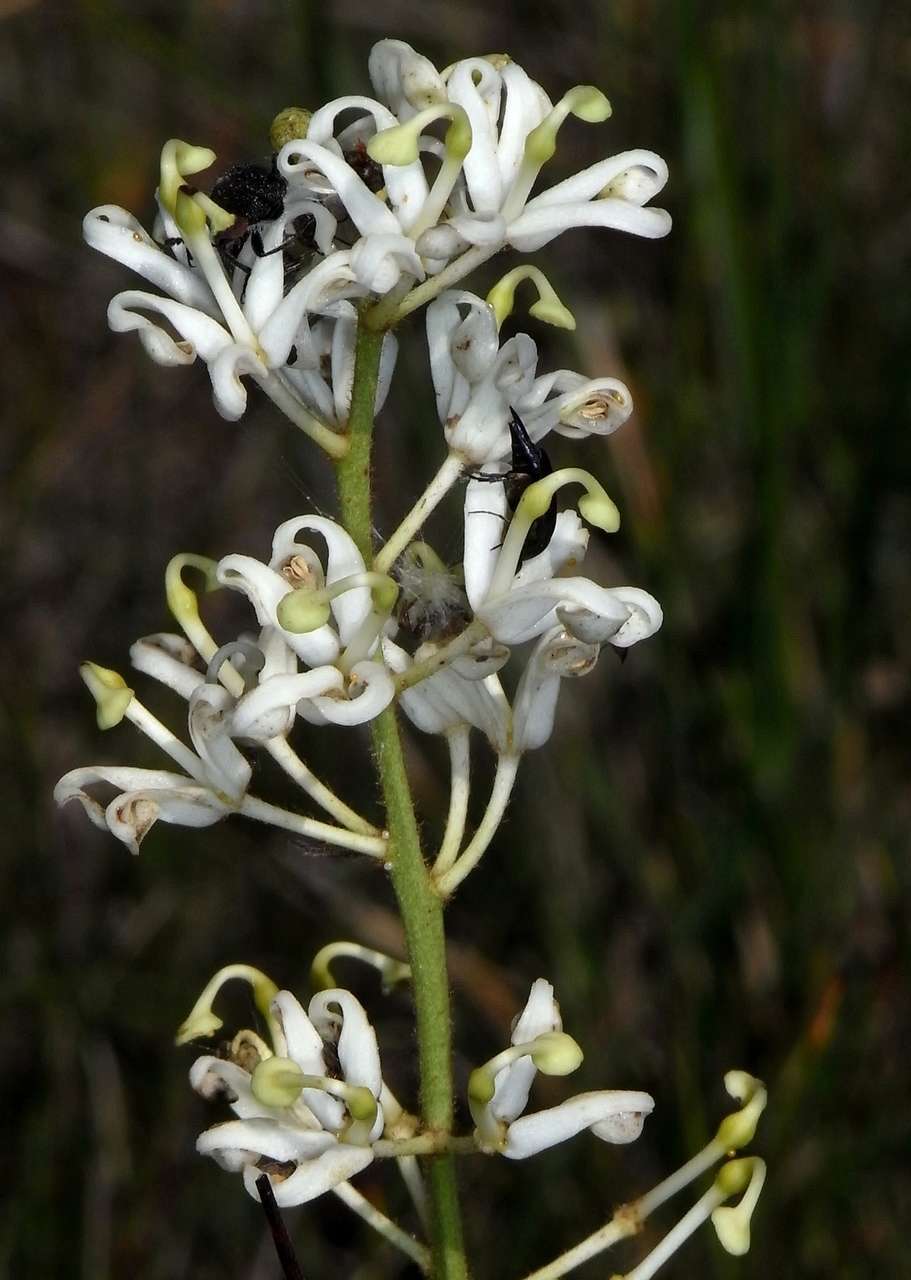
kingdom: Plantae
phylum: Tracheophyta
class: Magnoliopsida
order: Proteales
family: Proteaceae
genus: Lomatia
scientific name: Lomatia ilicifolia
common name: Native-holly
